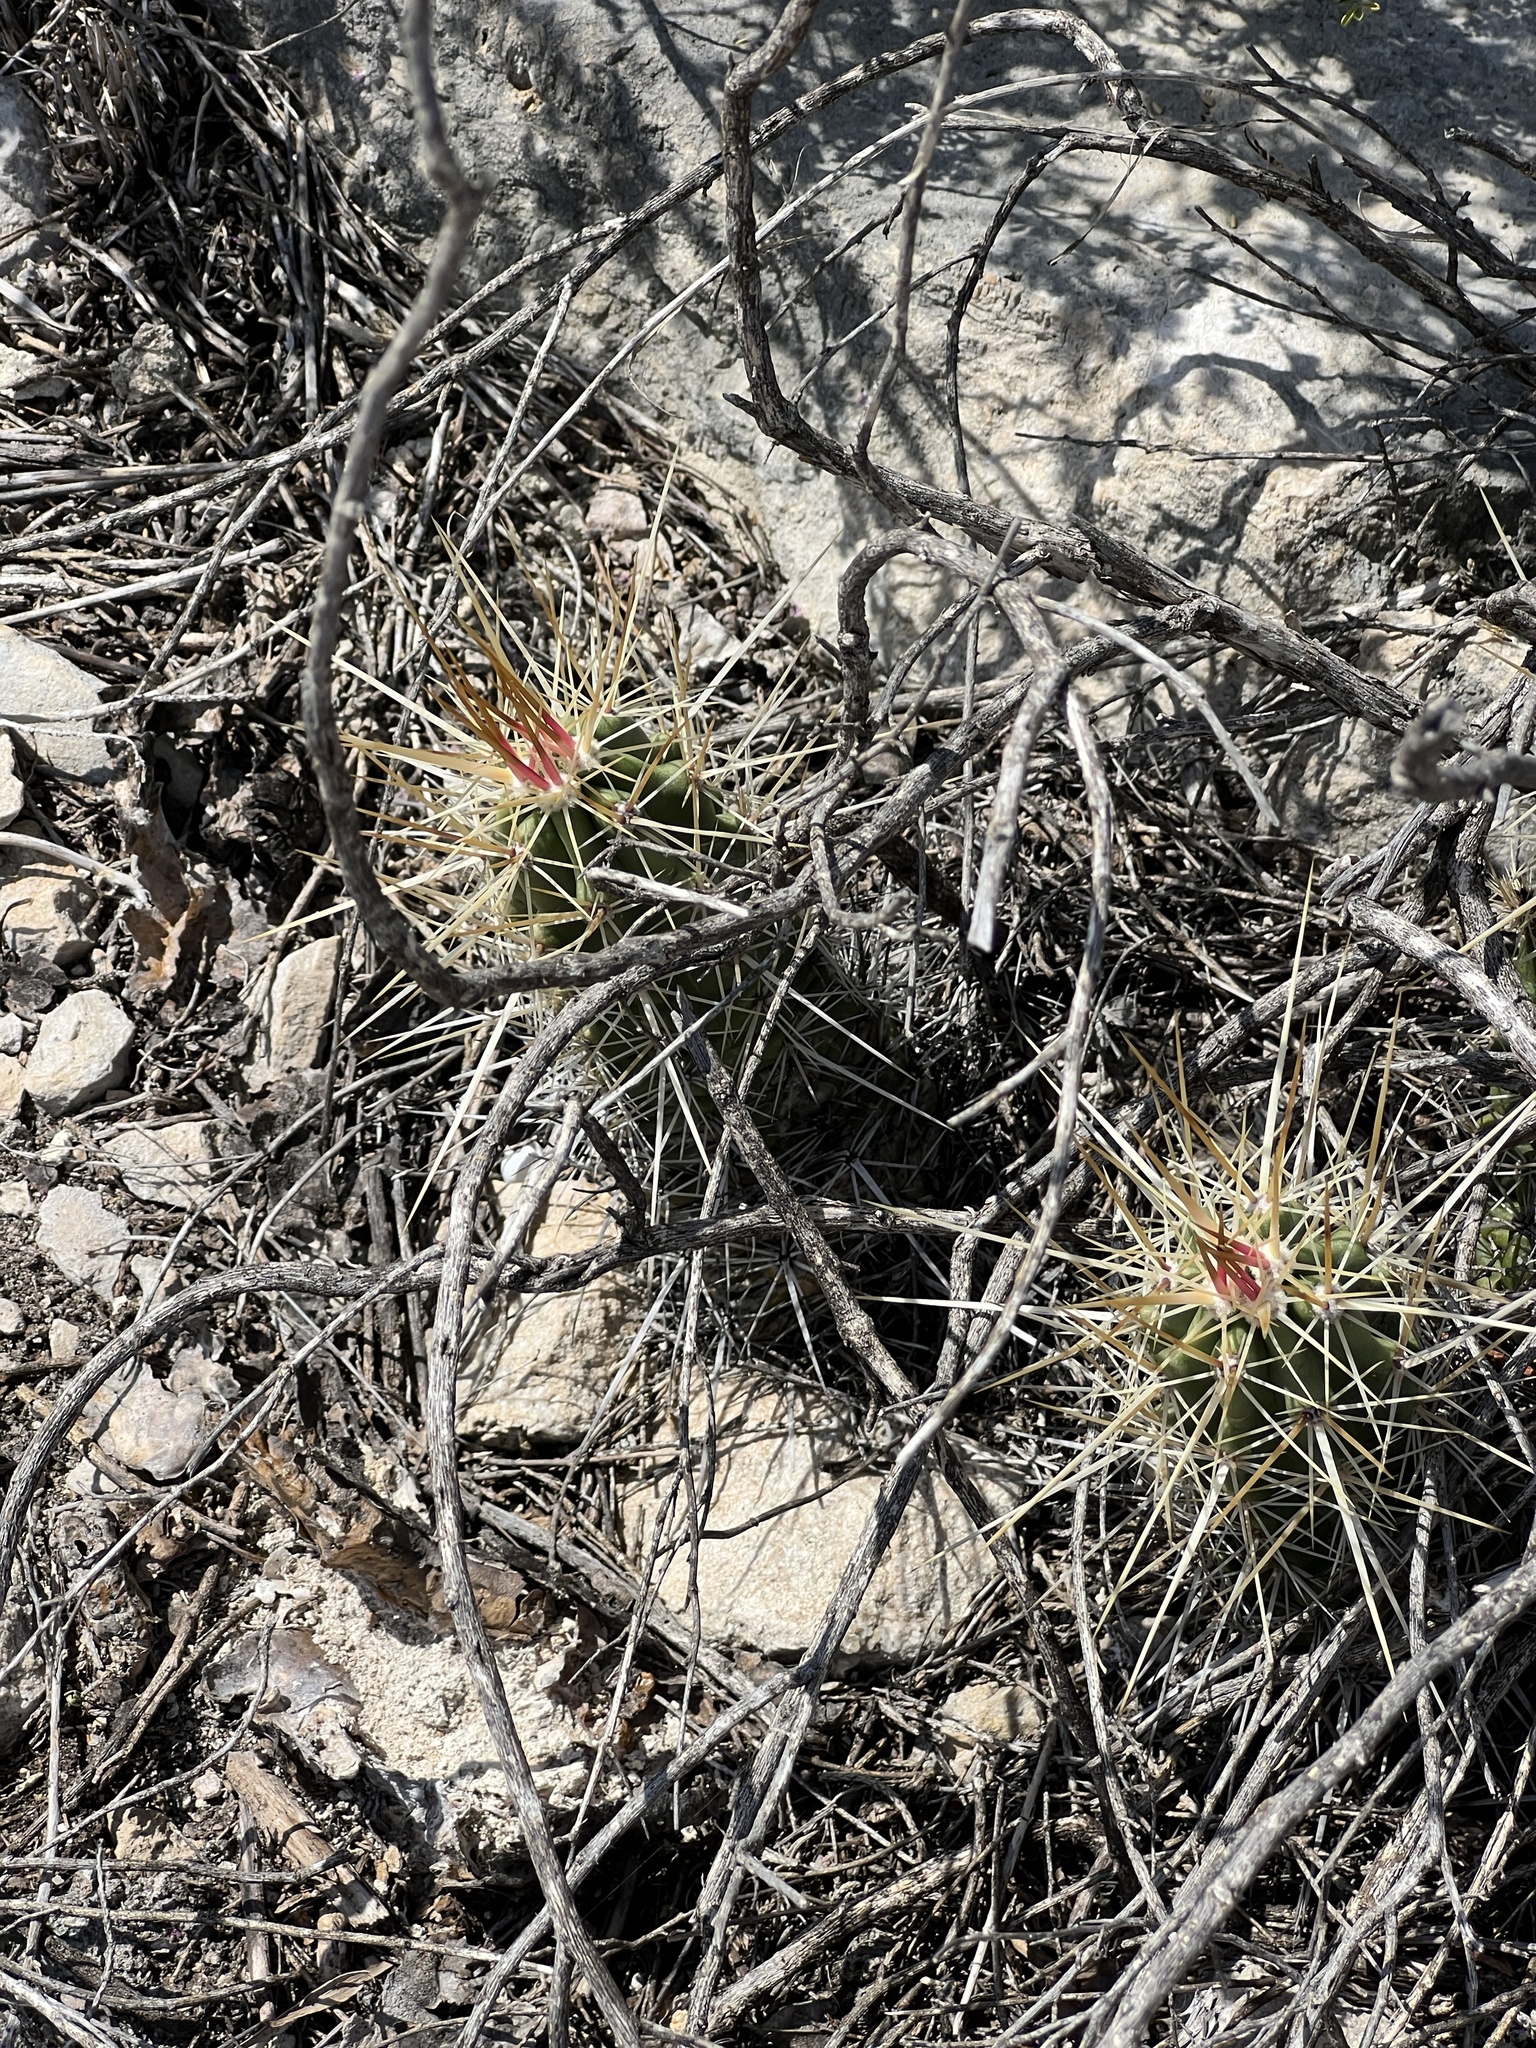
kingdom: Plantae
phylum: Tracheophyta
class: Magnoliopsida
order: Caryophyllales
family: Cactaceae
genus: Echinocereus
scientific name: Echinocereus enneacanthus
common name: Pitaya
